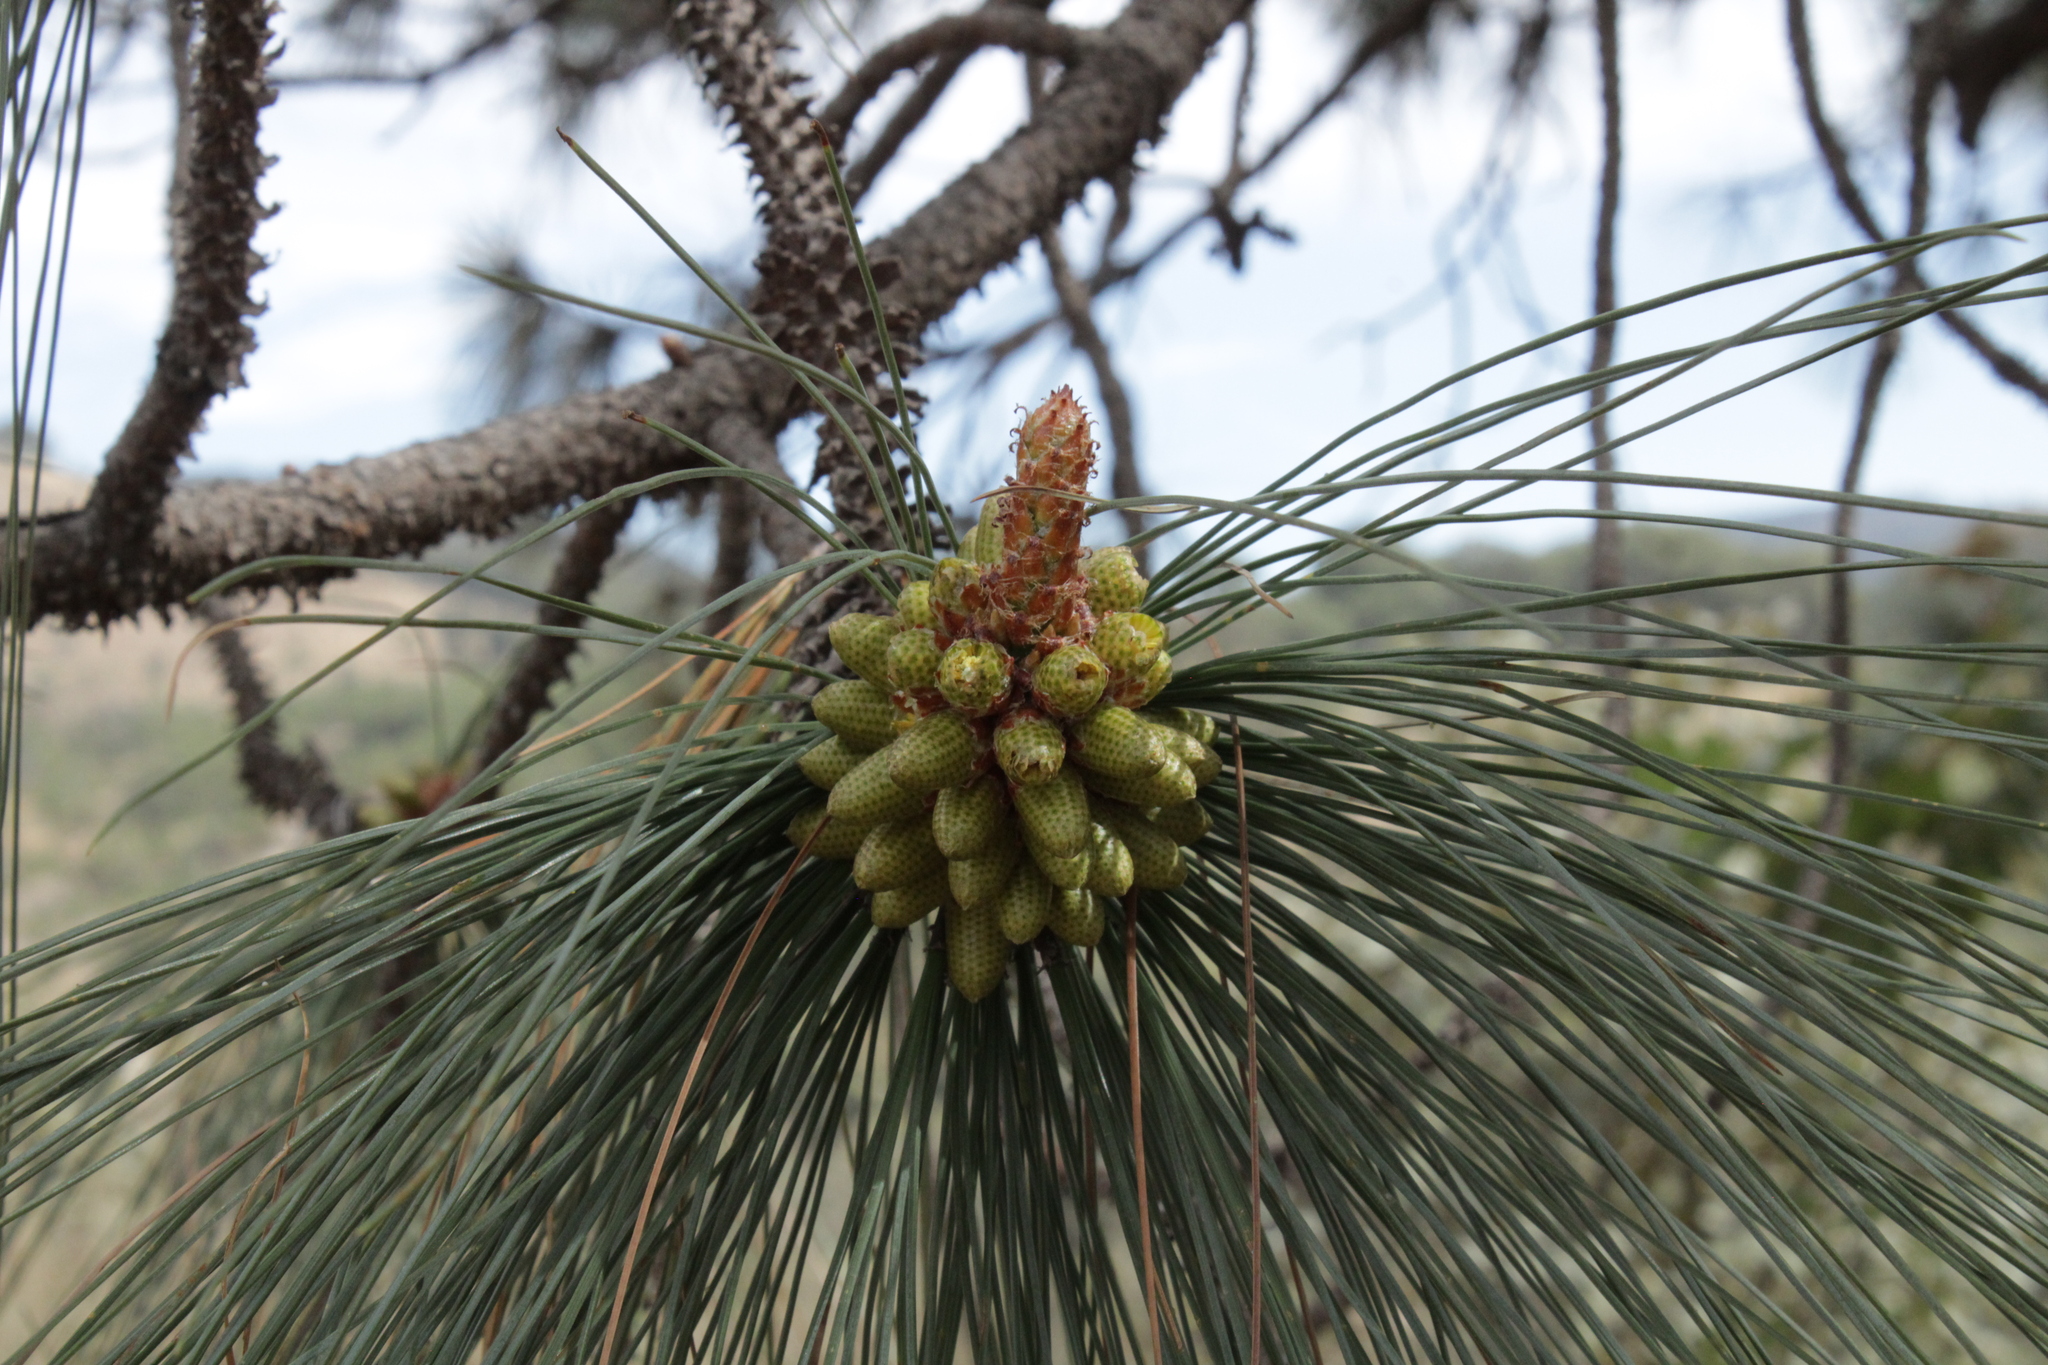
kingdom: Plantae
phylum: Tracheophyta
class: Pinopsida
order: Pinales
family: Pinaceae
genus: Pinus
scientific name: Pinus oocarpa
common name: Egg-cone pine
